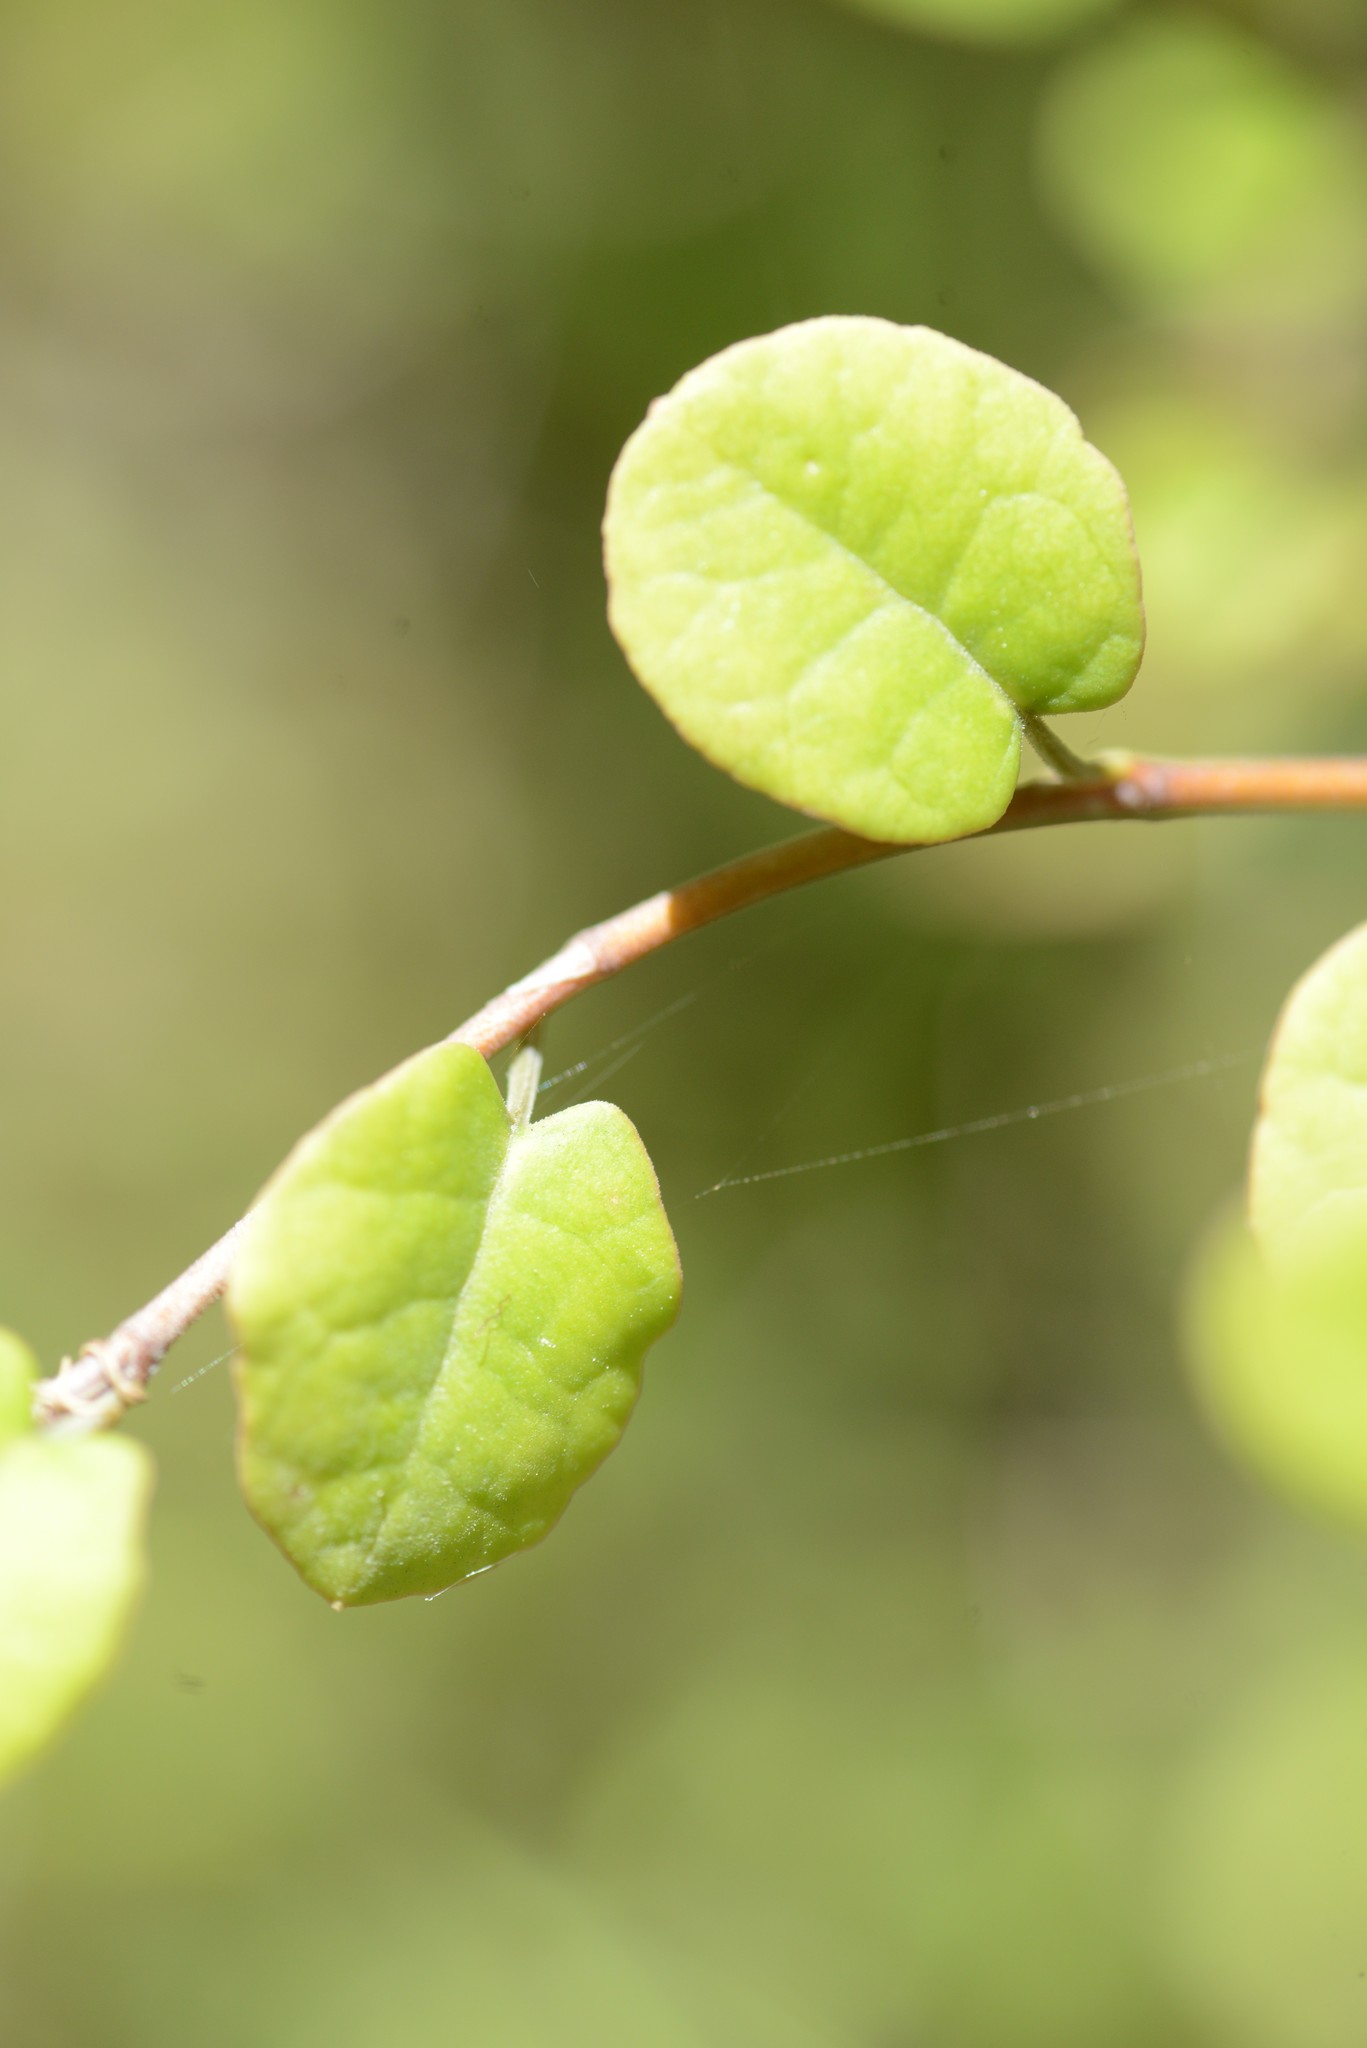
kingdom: Plantae
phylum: Tracheophyta
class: Magnoliopsida
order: Caryophyllales
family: Polygonaceae
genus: Muehlenbeckia
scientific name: Muehlenbeckia australis
